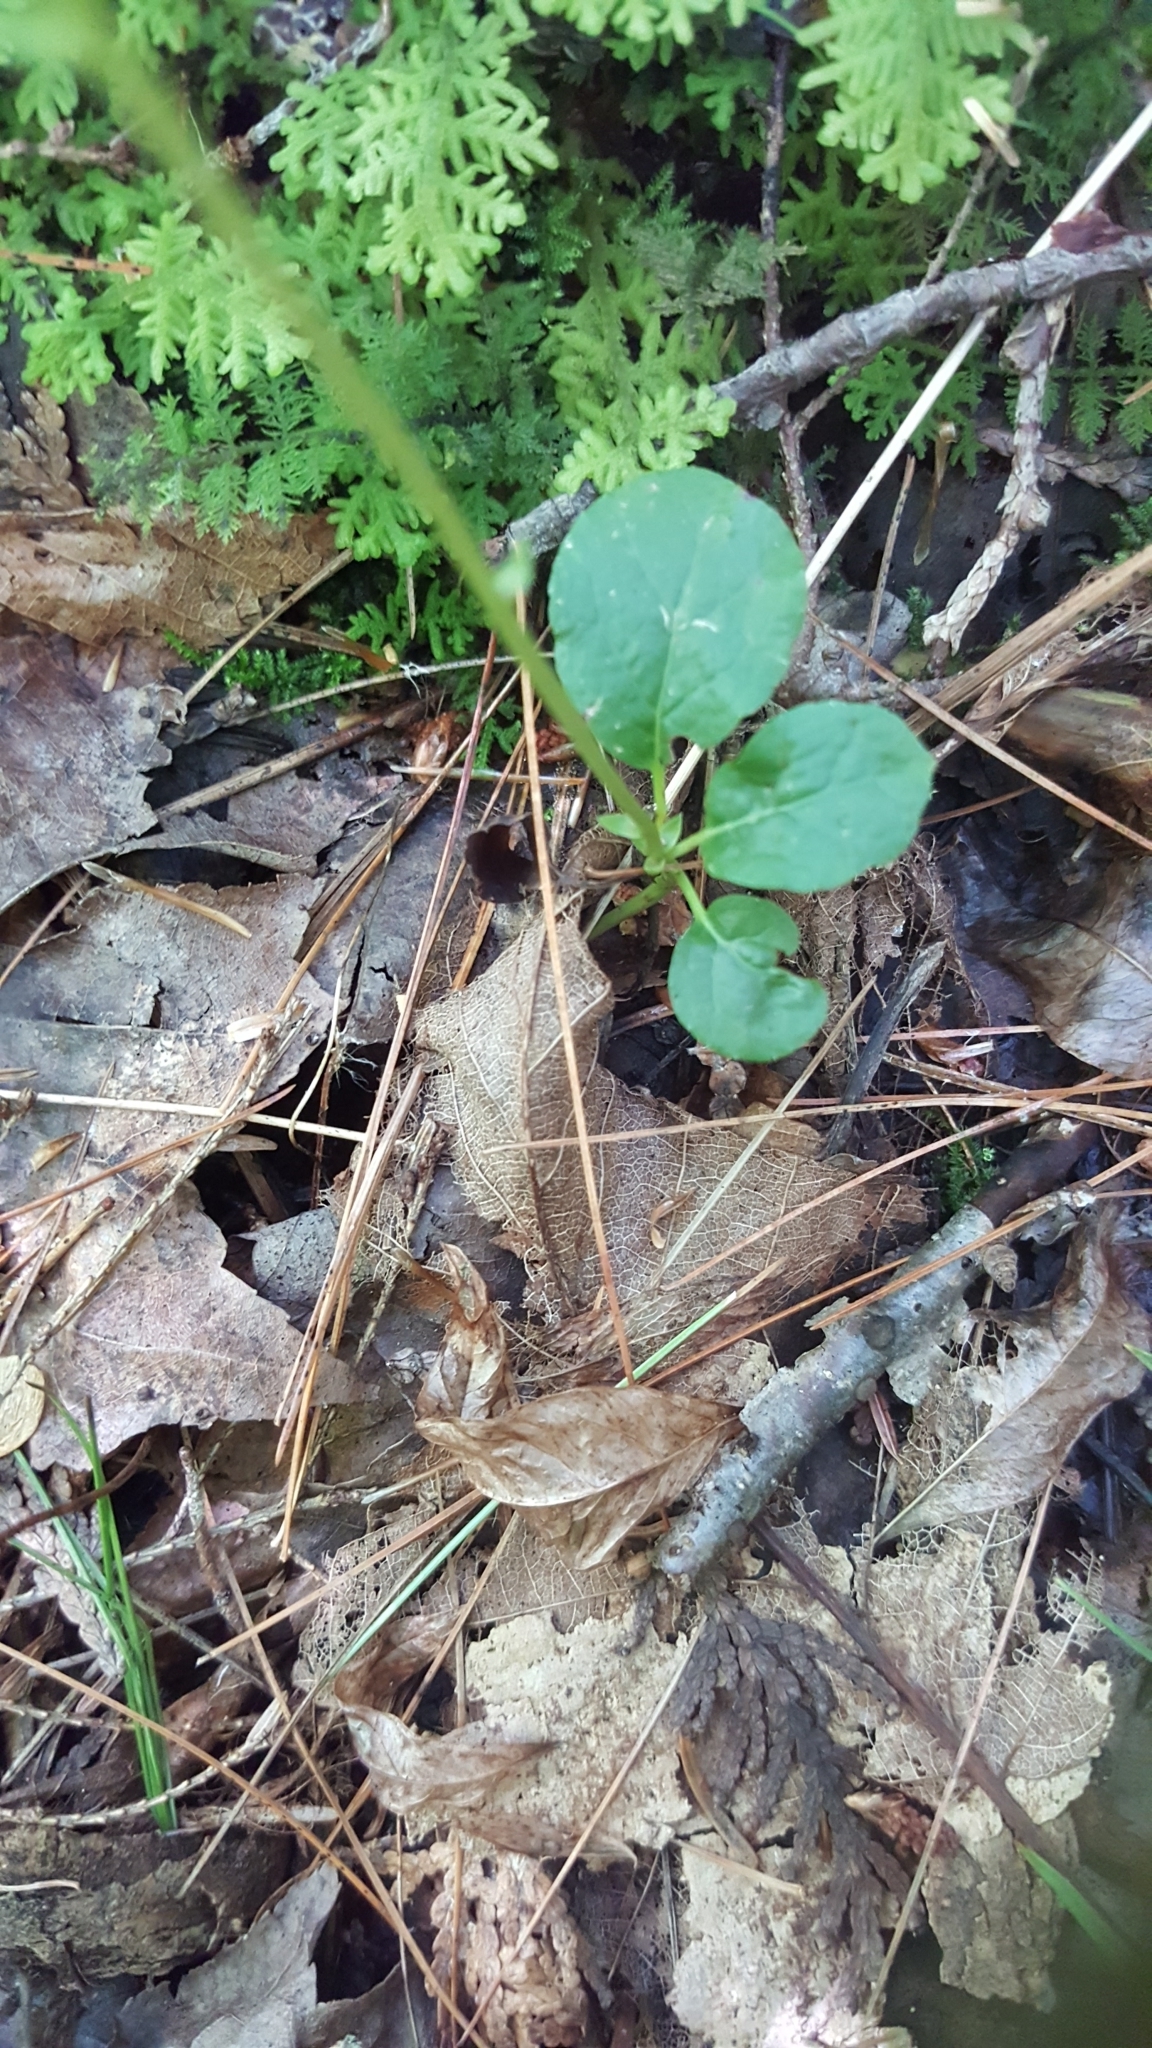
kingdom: Plantae
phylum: Tracheophyta
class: Magnoliopsida
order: Ericales
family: Ericaceae
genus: Orthilia
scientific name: Orthilia secunda
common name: One-sided orthilia
